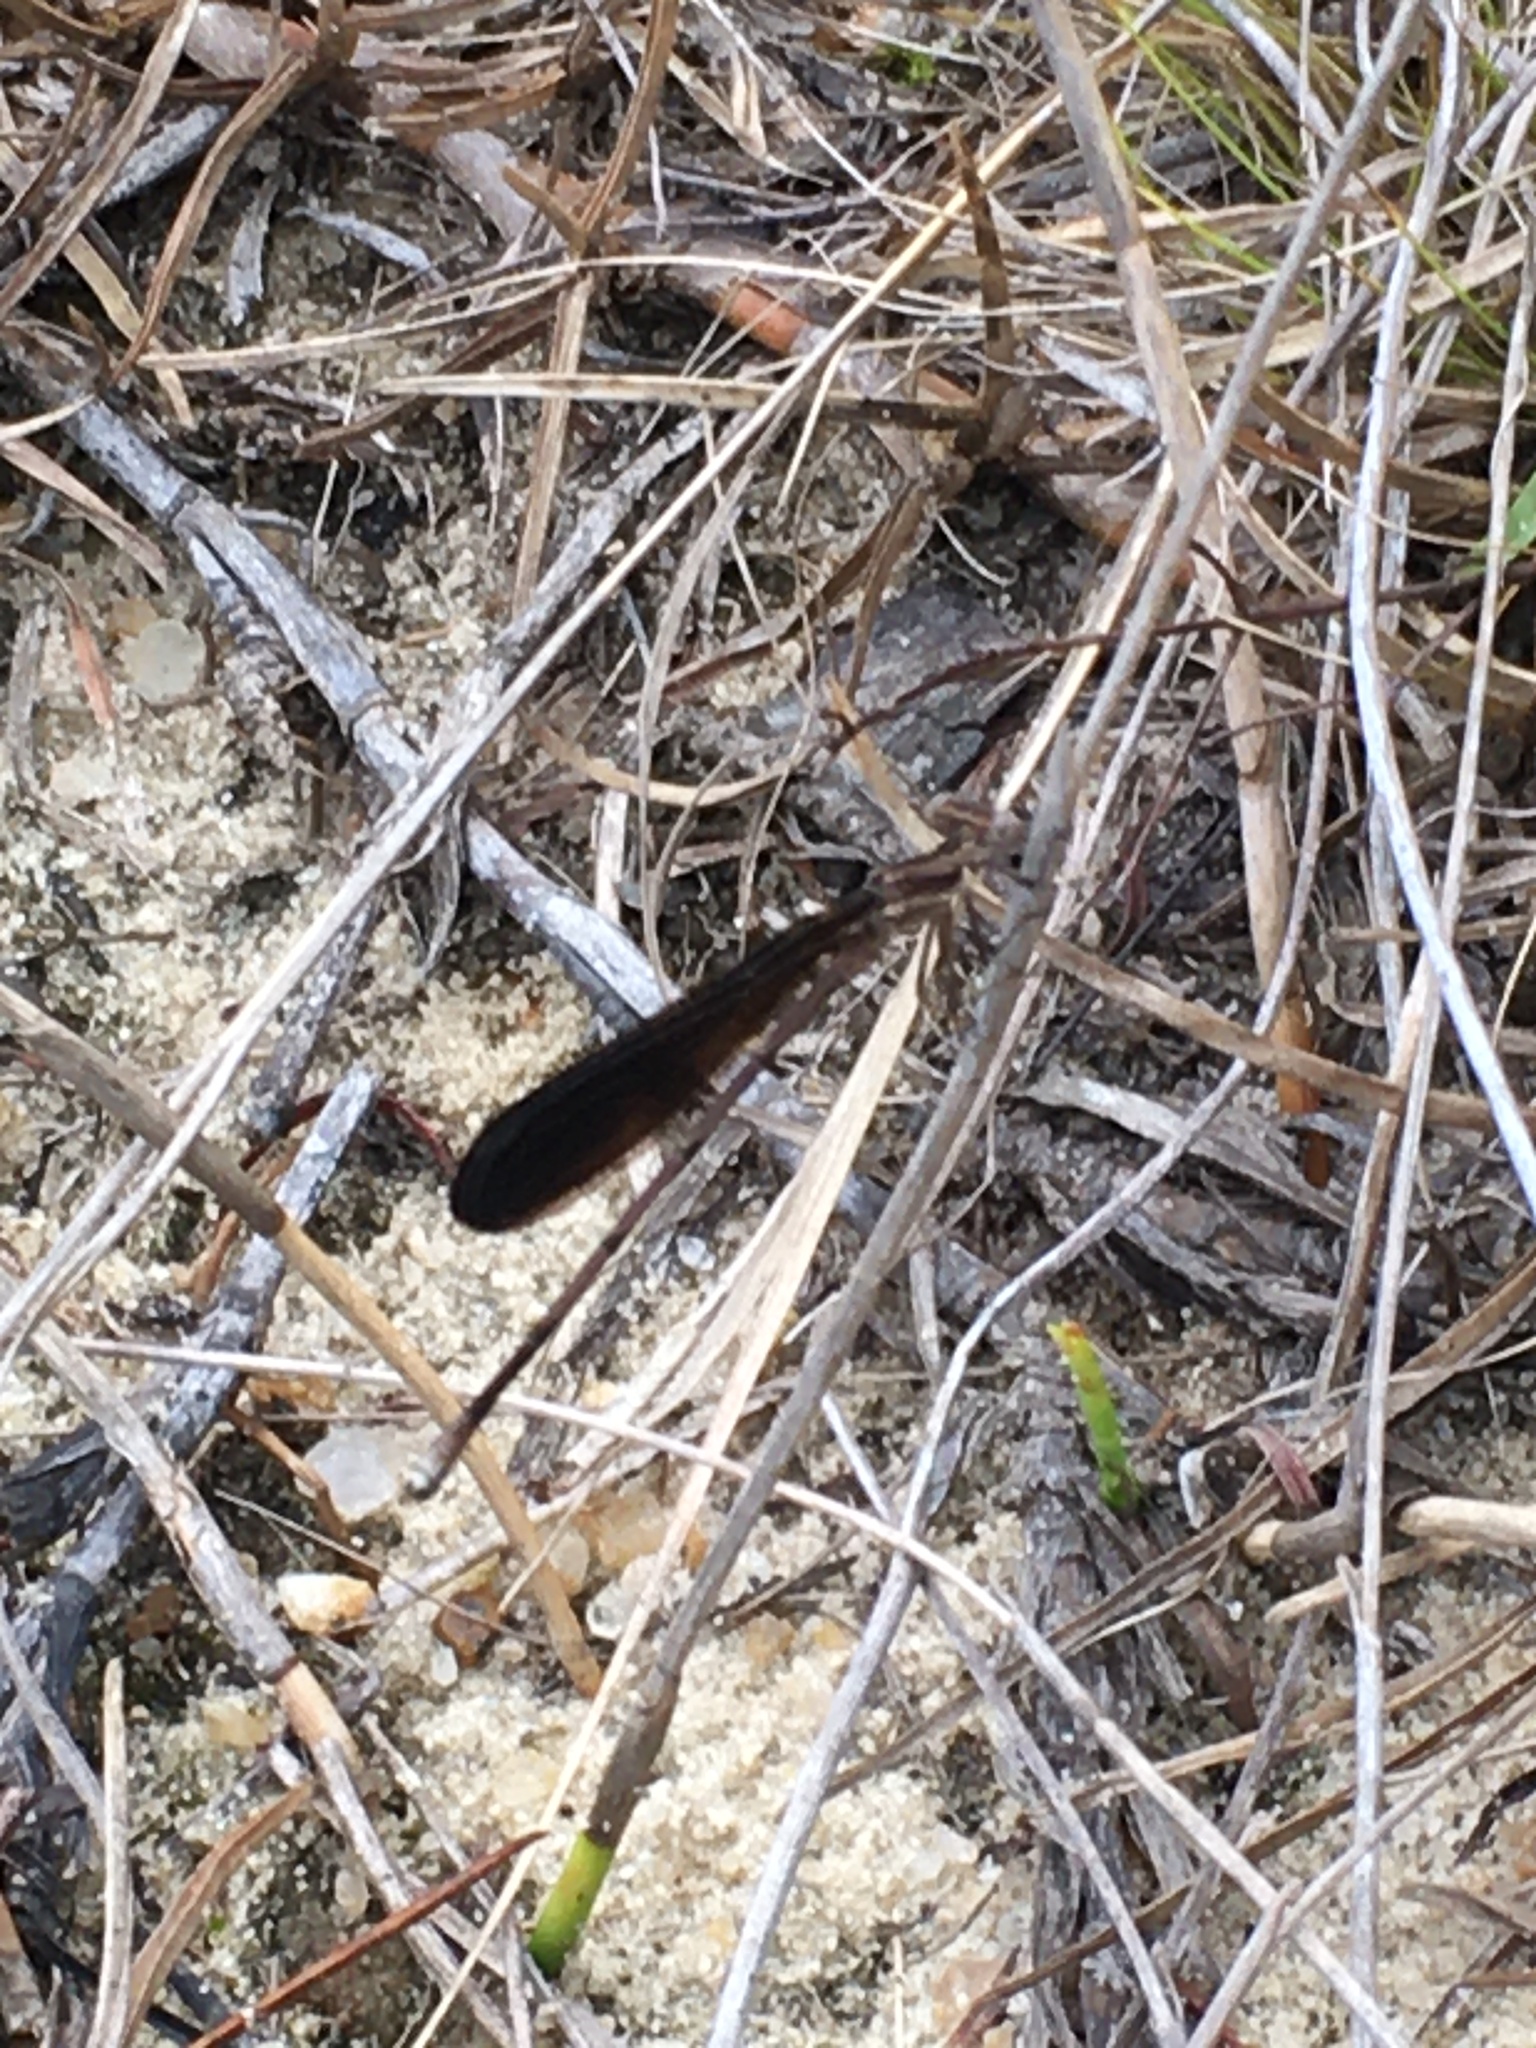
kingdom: Animalia
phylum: Arthropoda
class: Insecta
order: Odonata
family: Coenagrionidae
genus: Argia
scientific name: Argia fumipennis
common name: Variable dancer
